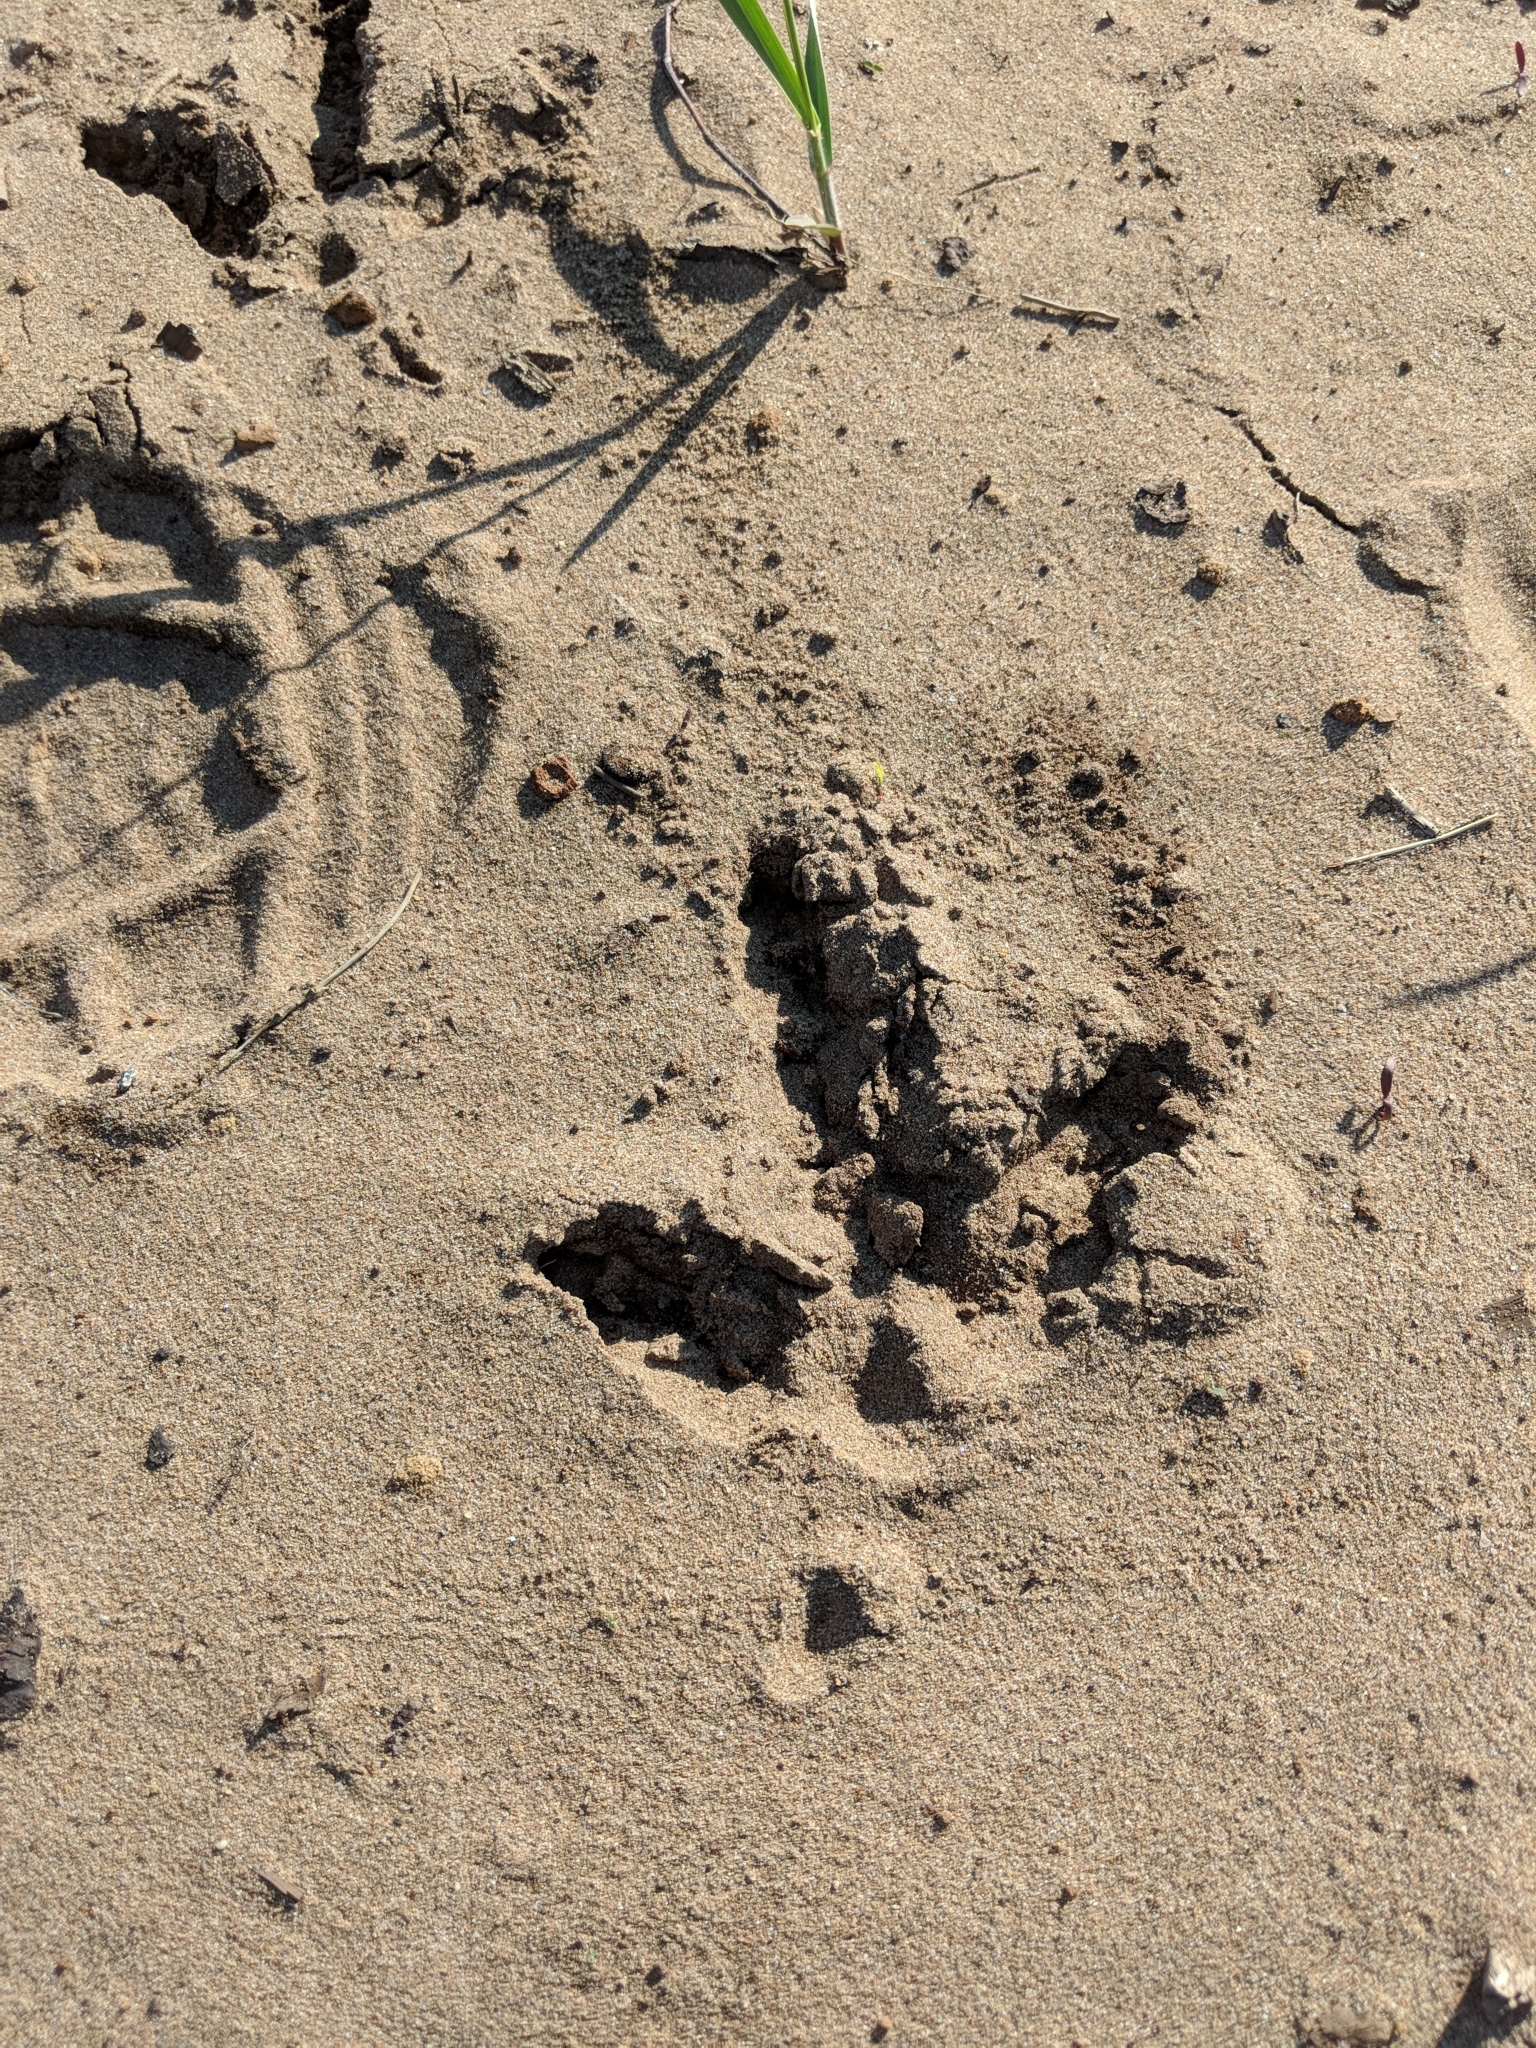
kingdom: Animalia
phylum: Chordata
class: Aves
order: Galliformes
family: Phasianidae
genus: Meleagris
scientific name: Meleagris gallopavo
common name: Wild turkey
